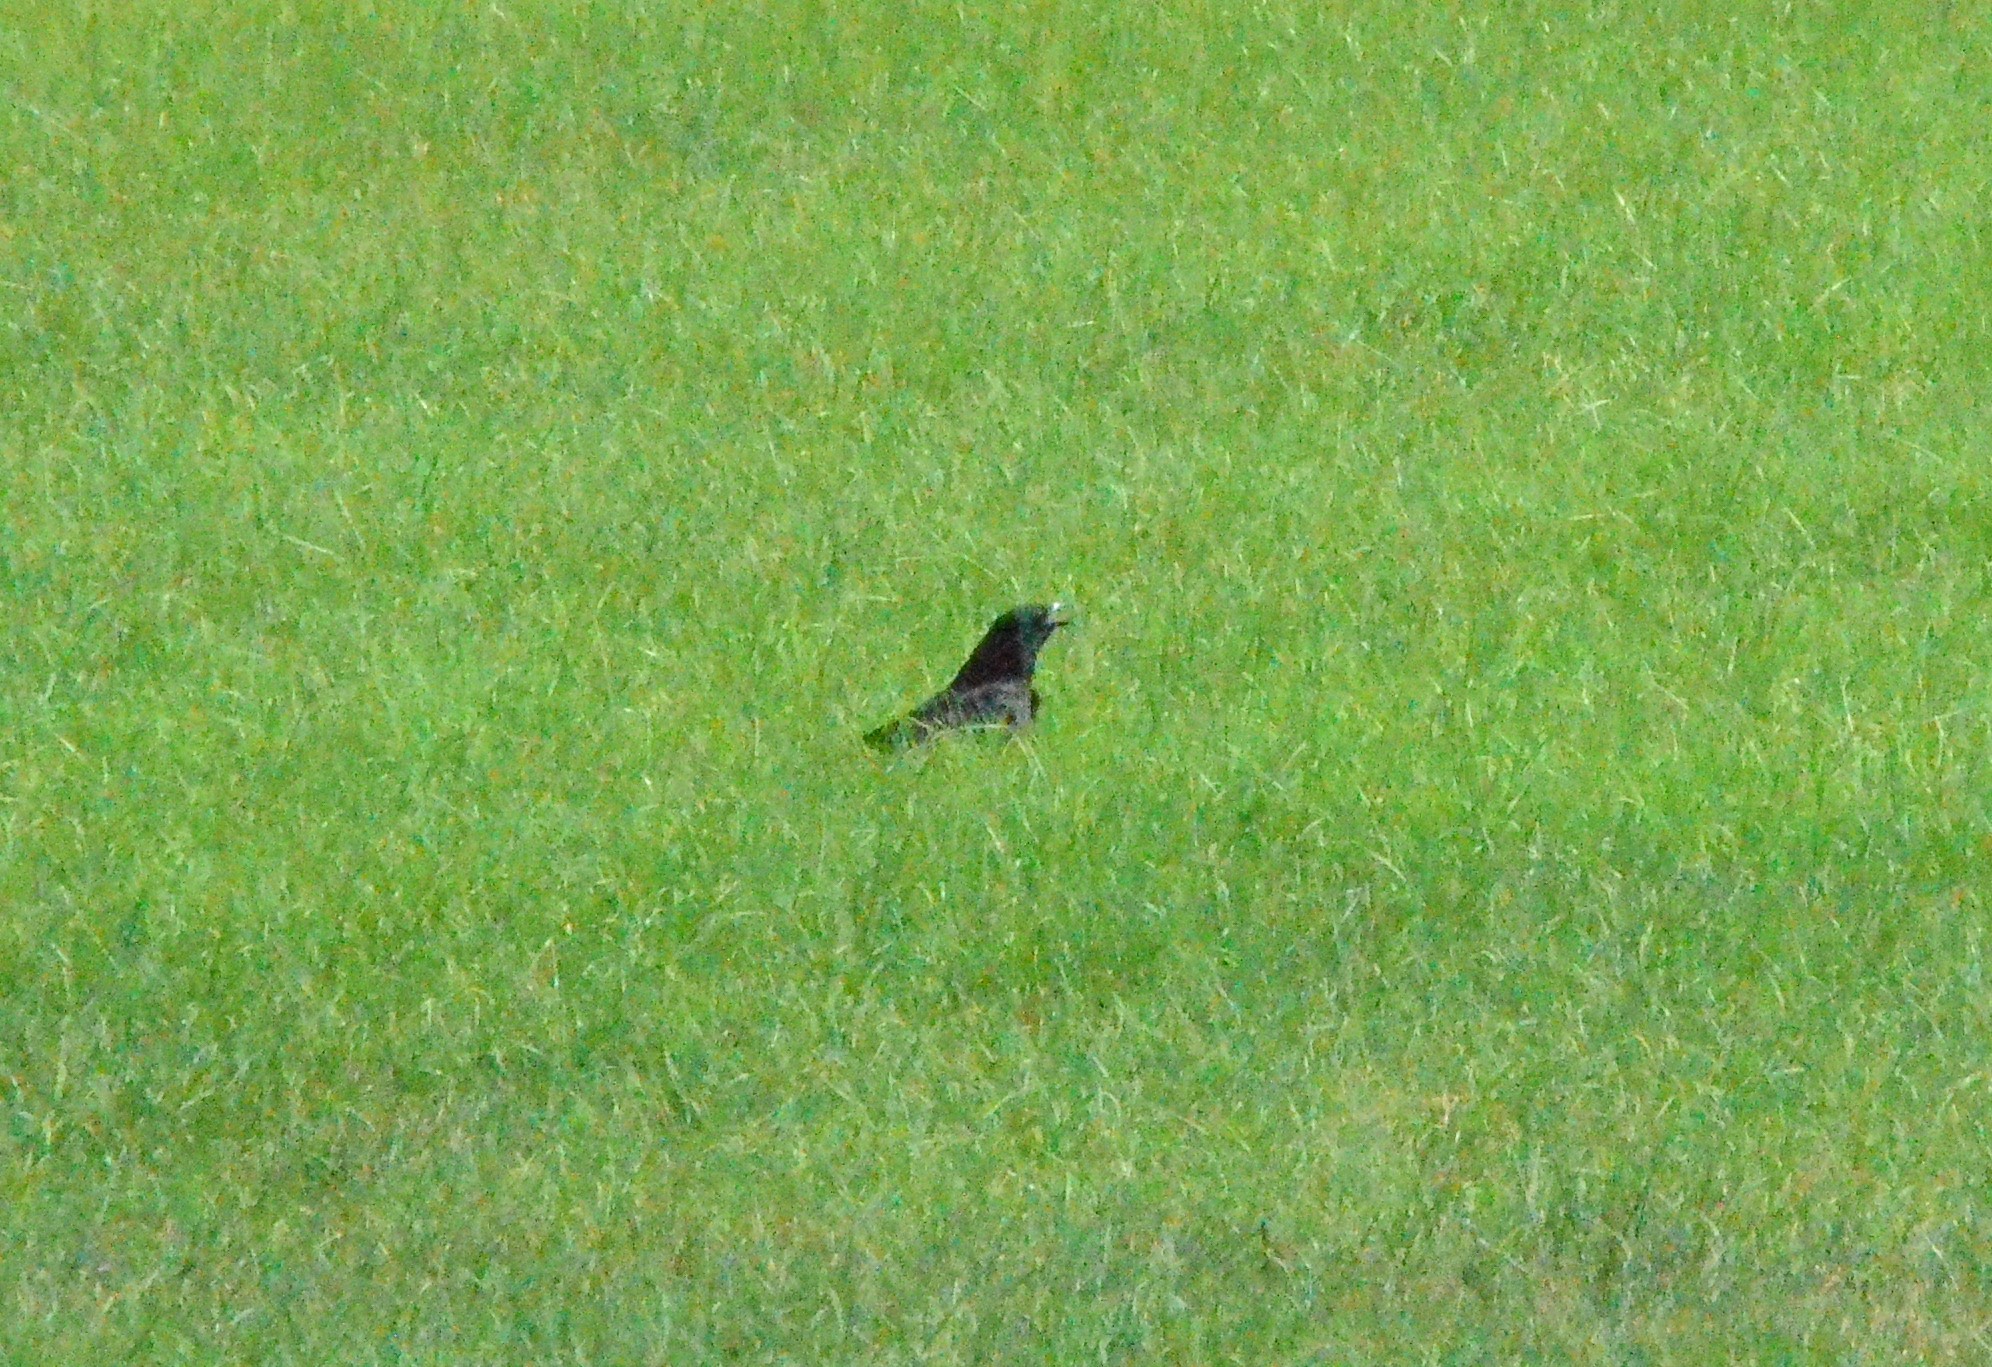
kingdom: Animalia
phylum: Chordata
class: Aves
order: Passeriformes
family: Corvidae
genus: Corvus
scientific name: Corvus corone
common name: Carrion crow
